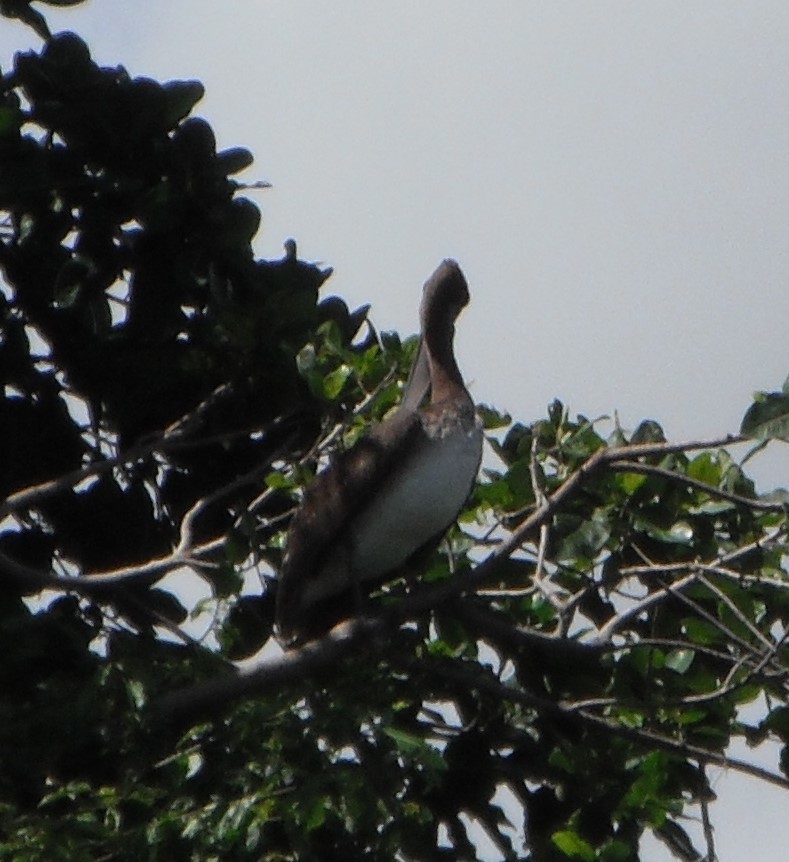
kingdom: Animalia
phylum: Chordata
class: Aves
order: Pelecaniformes
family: Pelecanidae
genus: Pelecanus
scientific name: Pelecanus occidentalis
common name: Brown pelican
